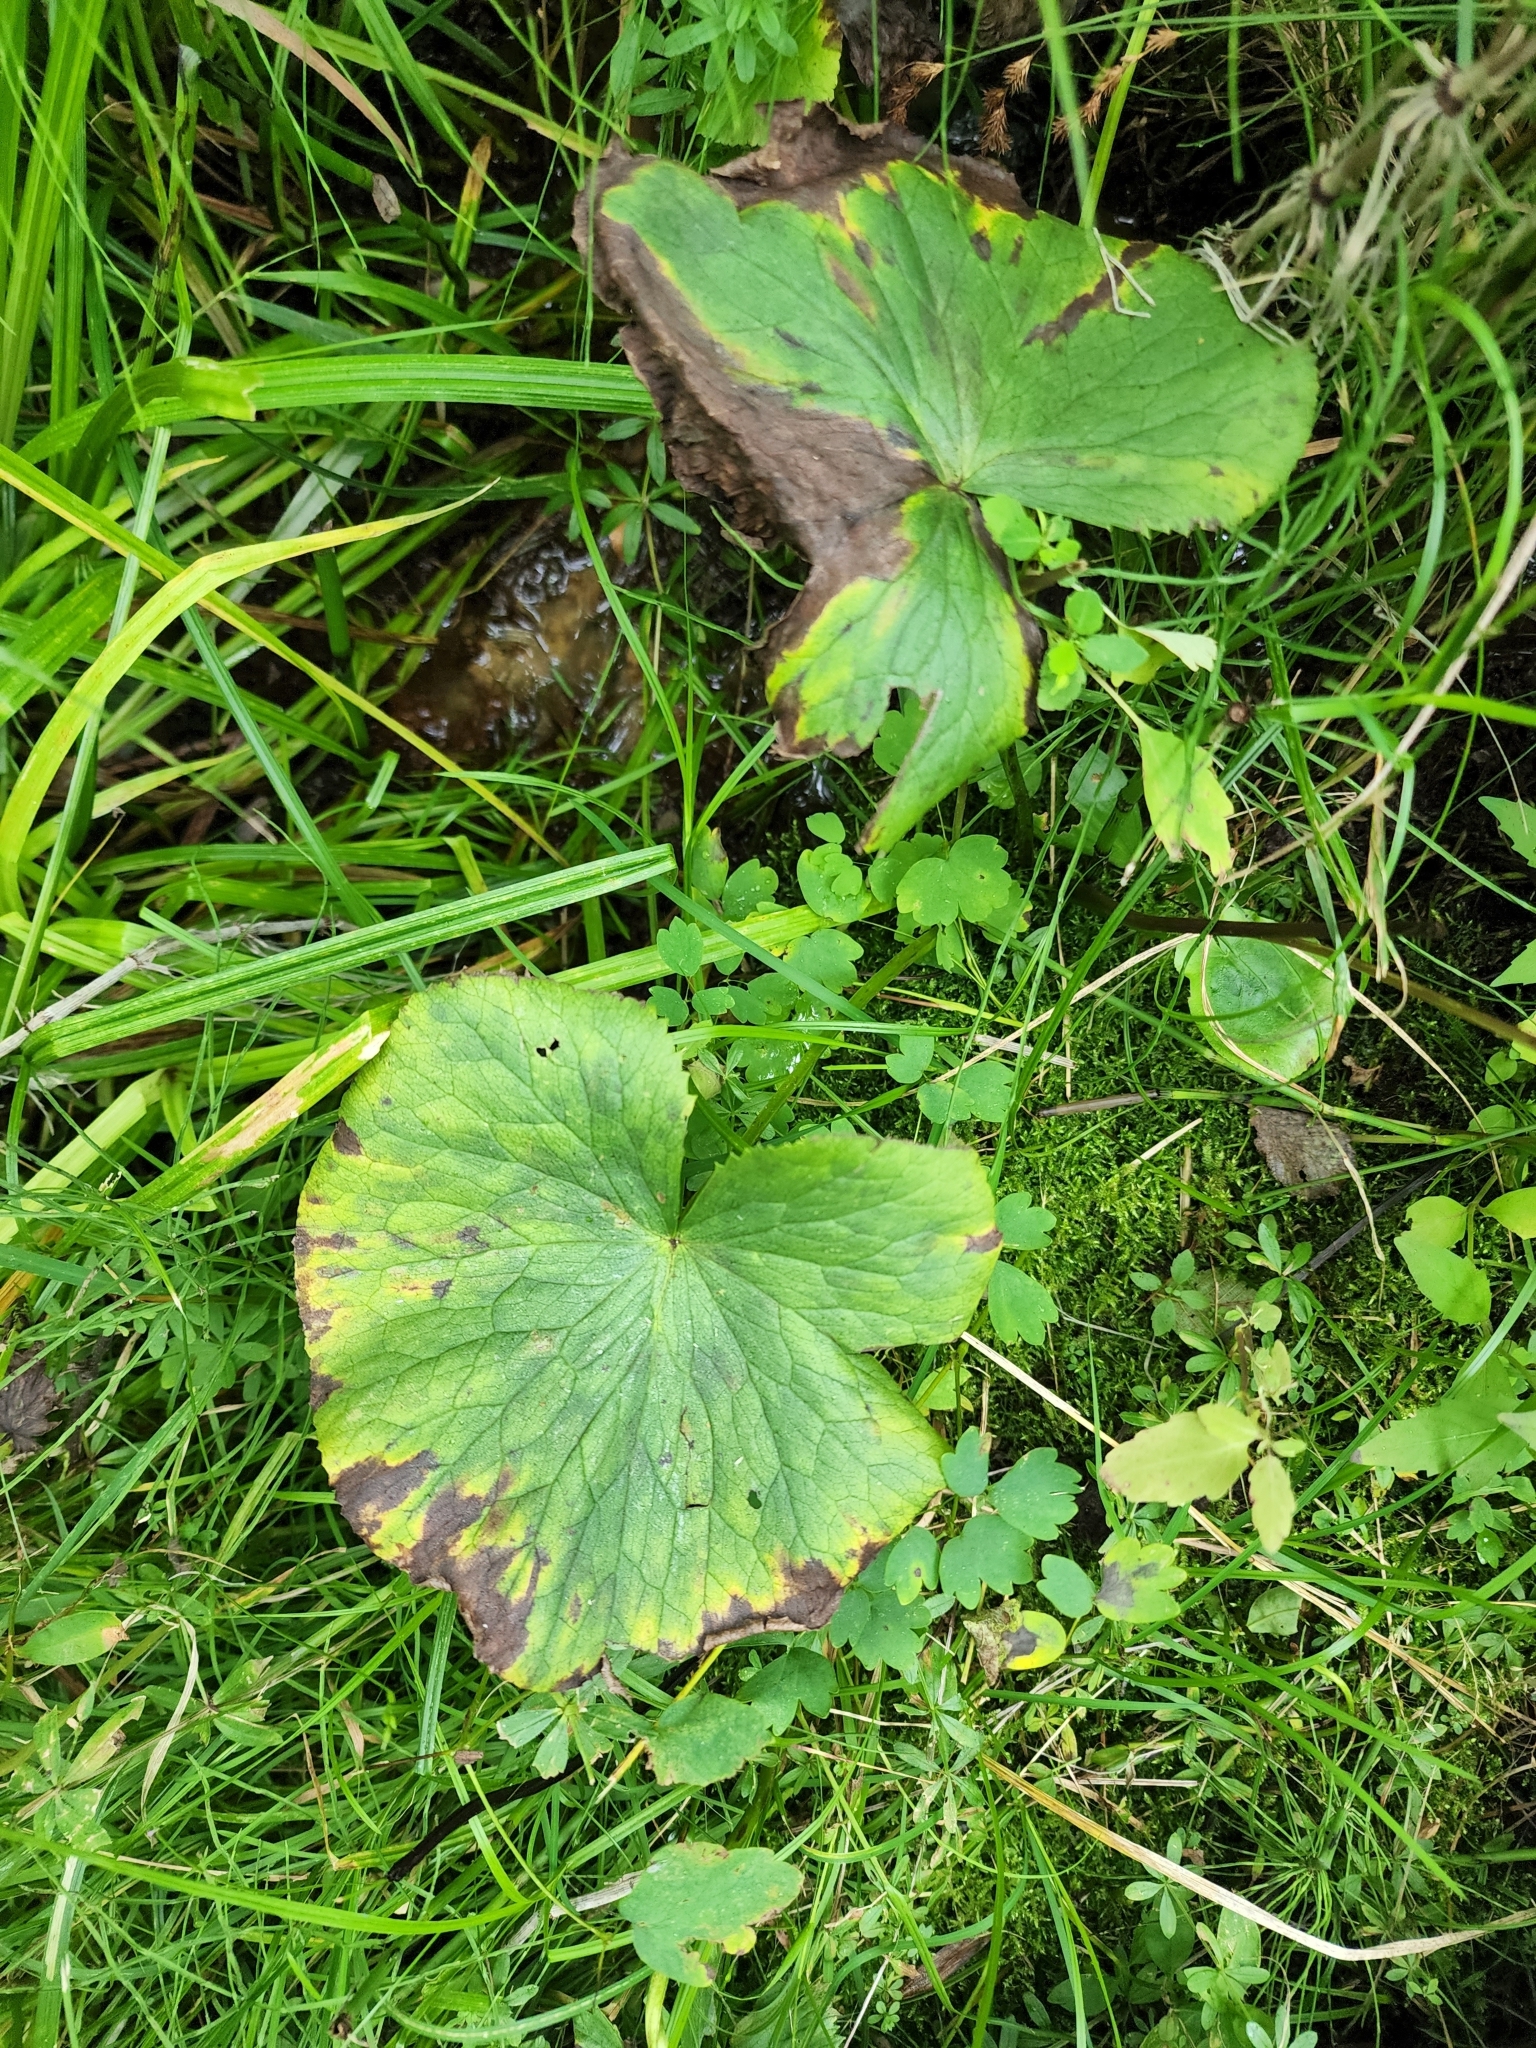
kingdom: Plantae
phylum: Tracheophyta
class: Magnoliopsida
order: Ranunculales
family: Ranunculaceae
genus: Caltha
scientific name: Caltha palustris
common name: Marsh marigold
